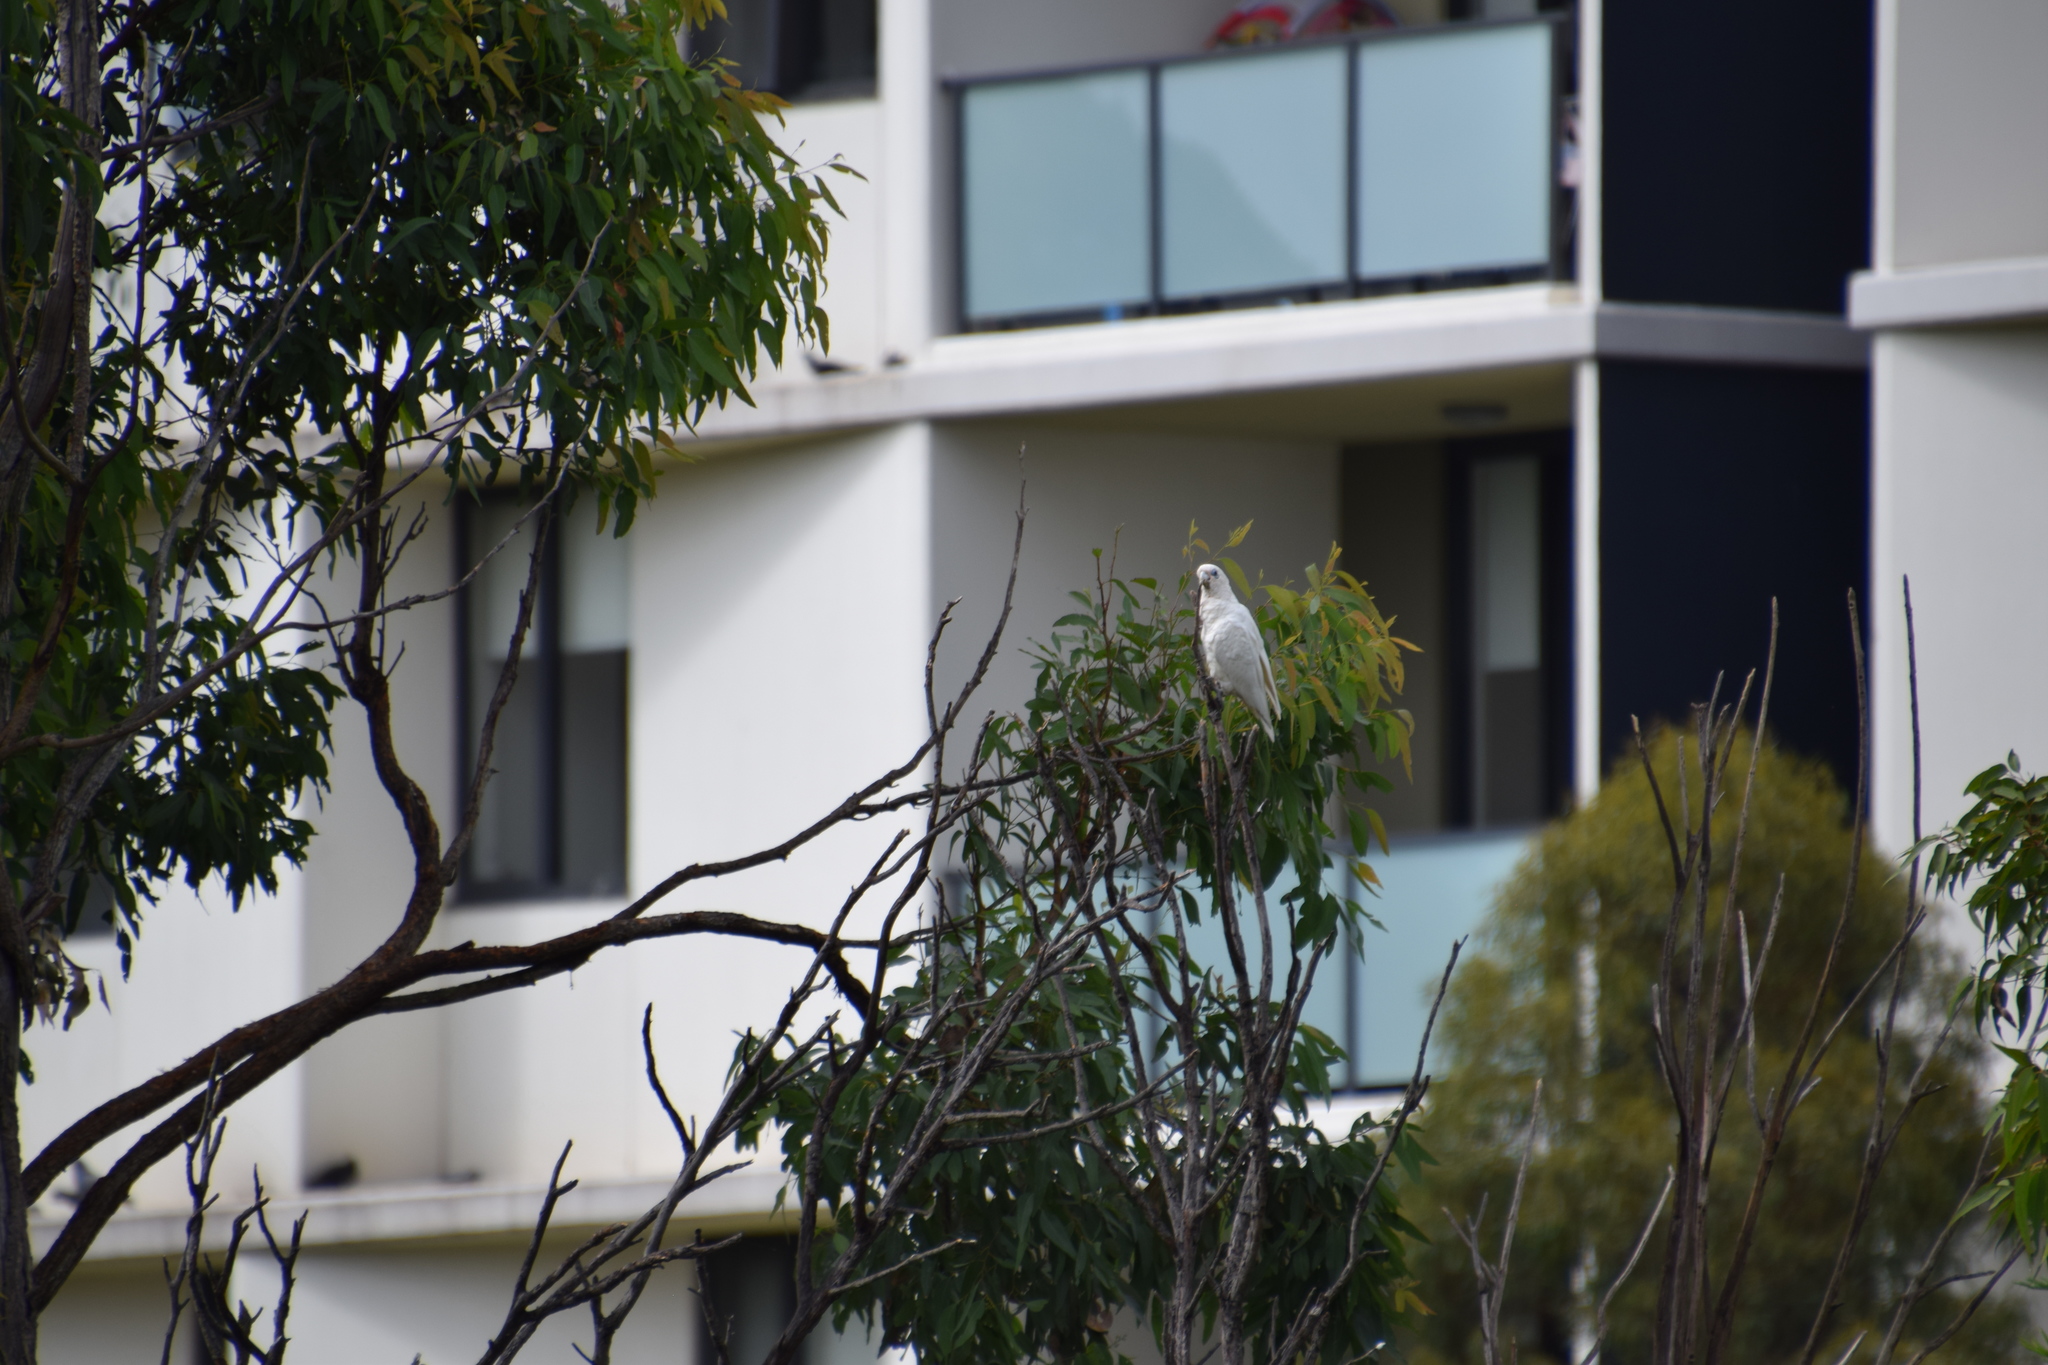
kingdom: Animalia
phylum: Chordata
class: Aves
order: Psittaciformes
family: Psittacidae
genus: Cacatua
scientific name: Cacatua sanguinea
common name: Little corella
